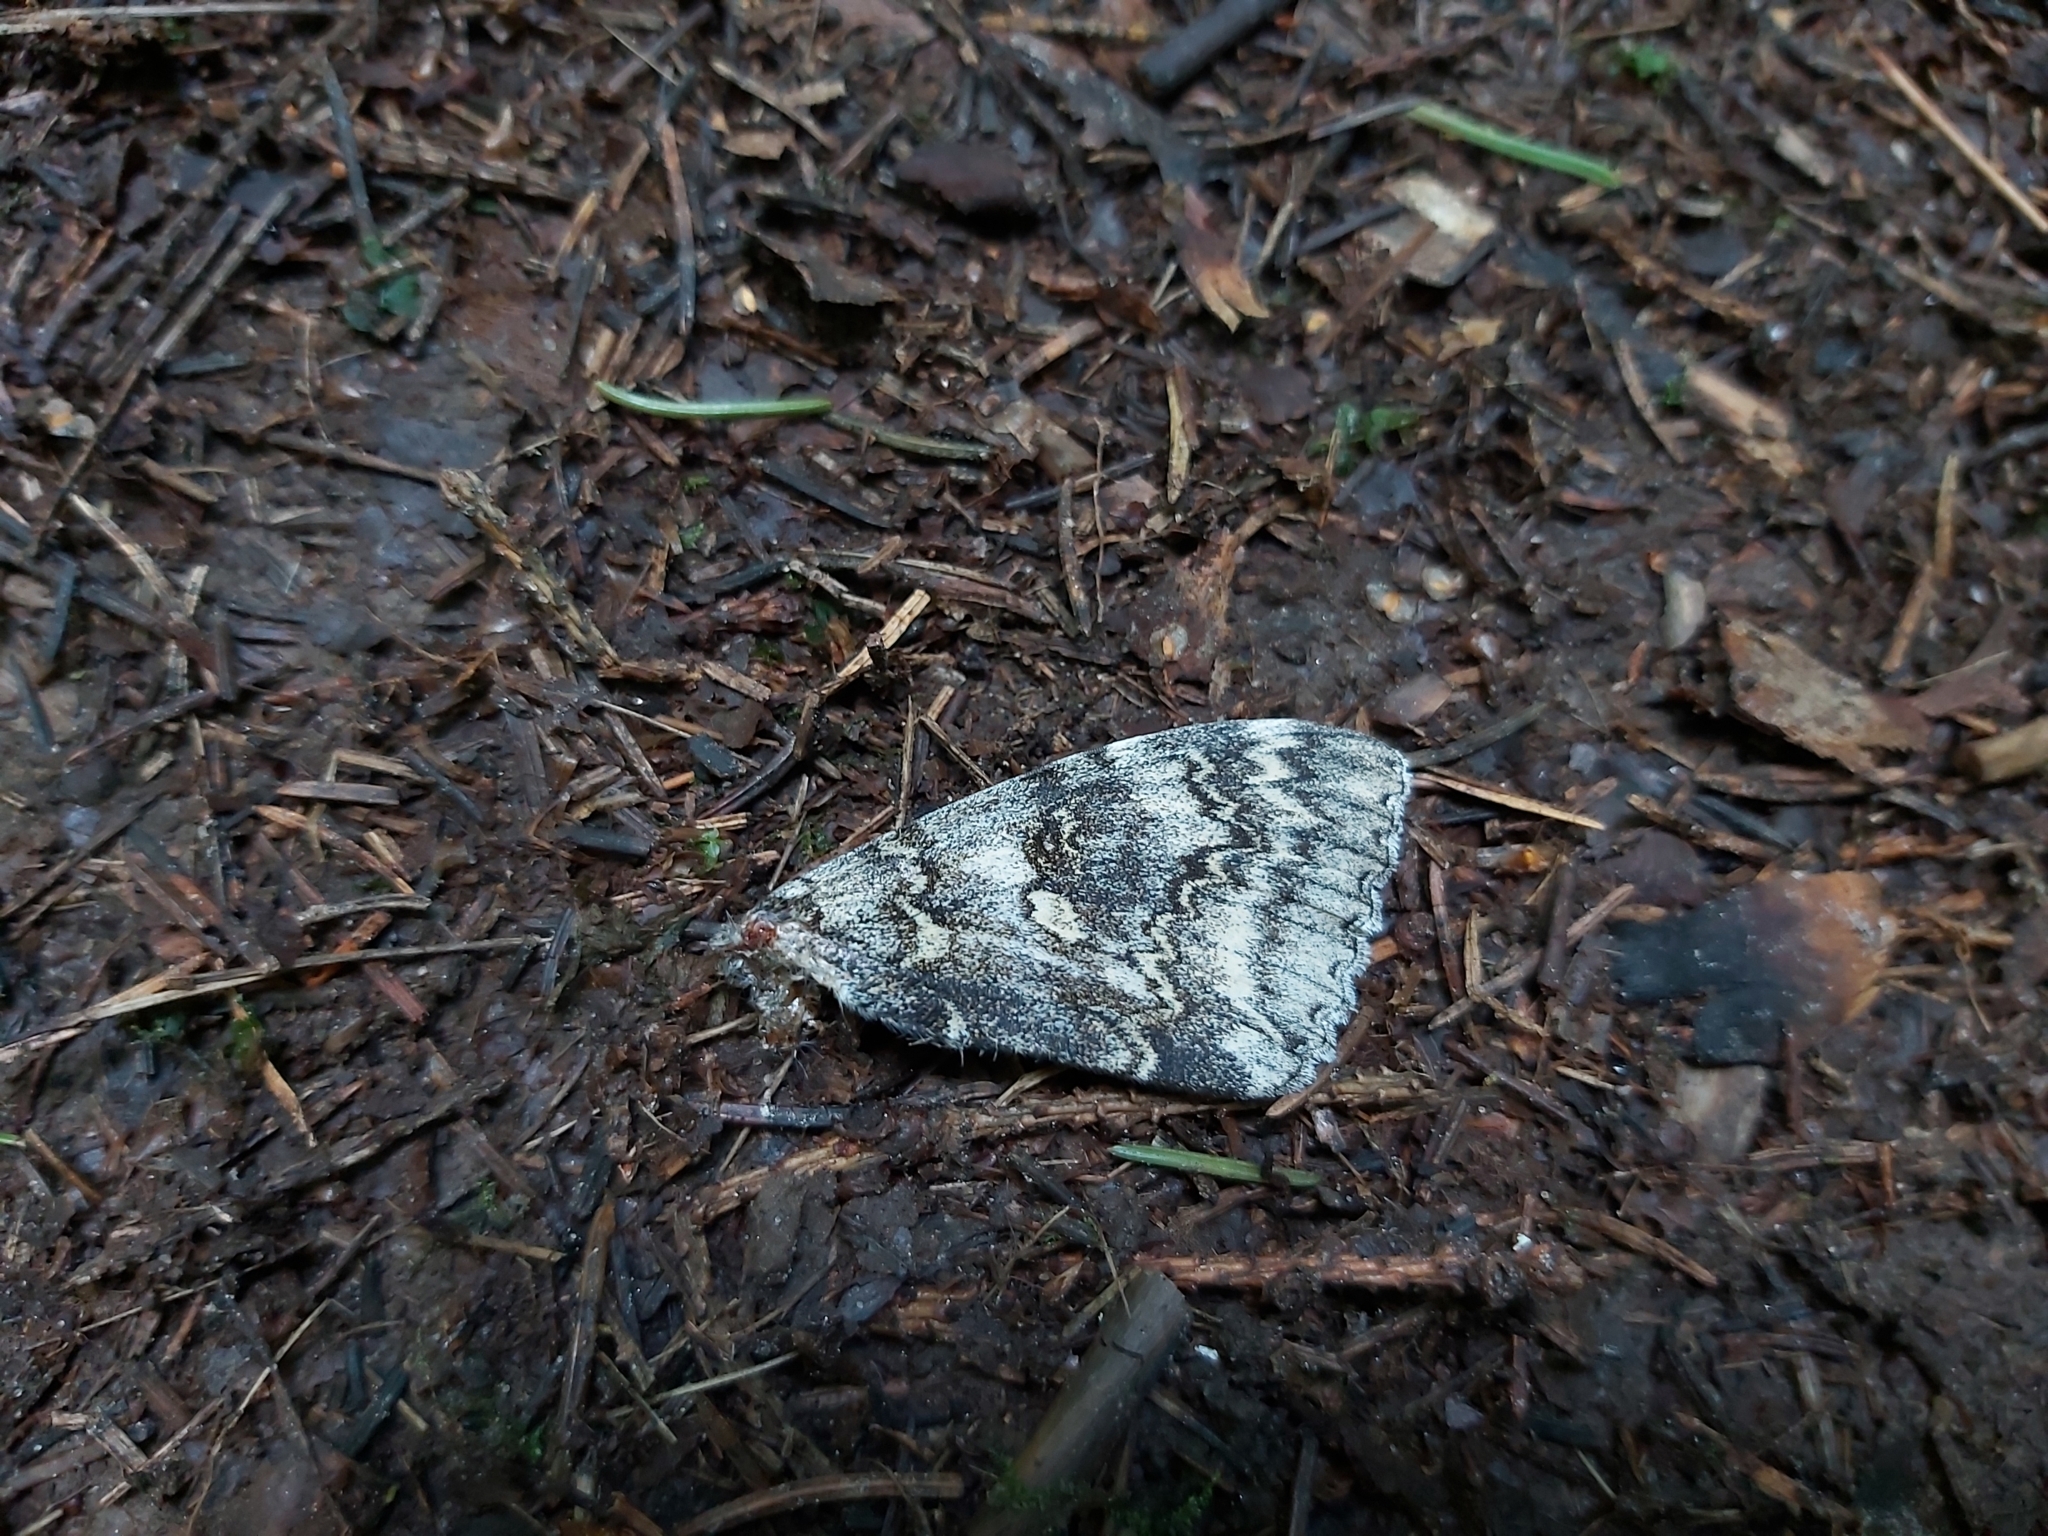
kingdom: Animalia
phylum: Arthropoda
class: Insecta
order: Lepidoptera
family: Erebidae
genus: Catocala
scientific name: Catocala fraxini
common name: Clifden nonpareil
